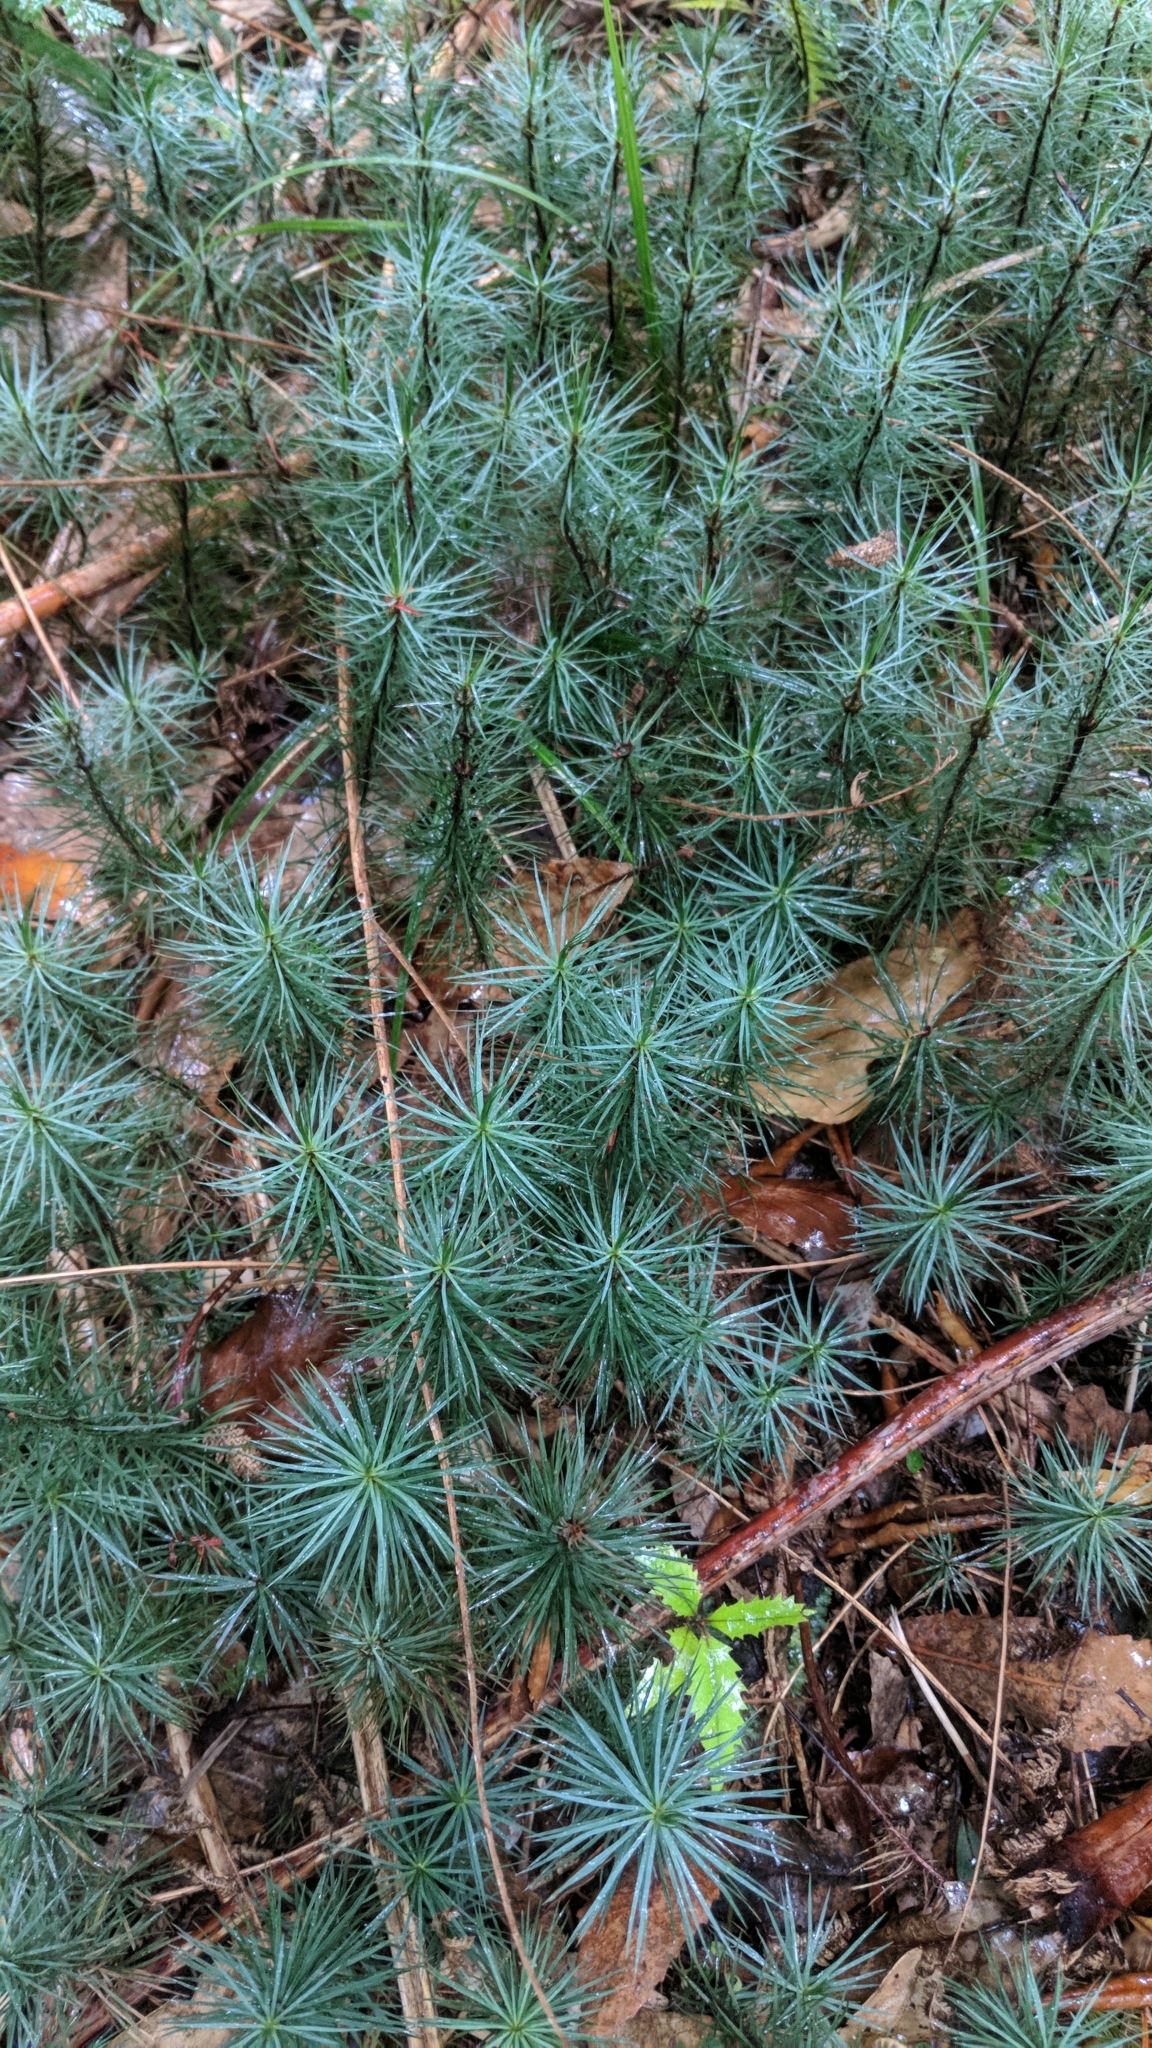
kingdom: Plantae
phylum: Bryophyta
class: Polytrichopsida
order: Polytrichales
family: Polytrichaceae
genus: Dawsonia
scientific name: Dawsonia superba
